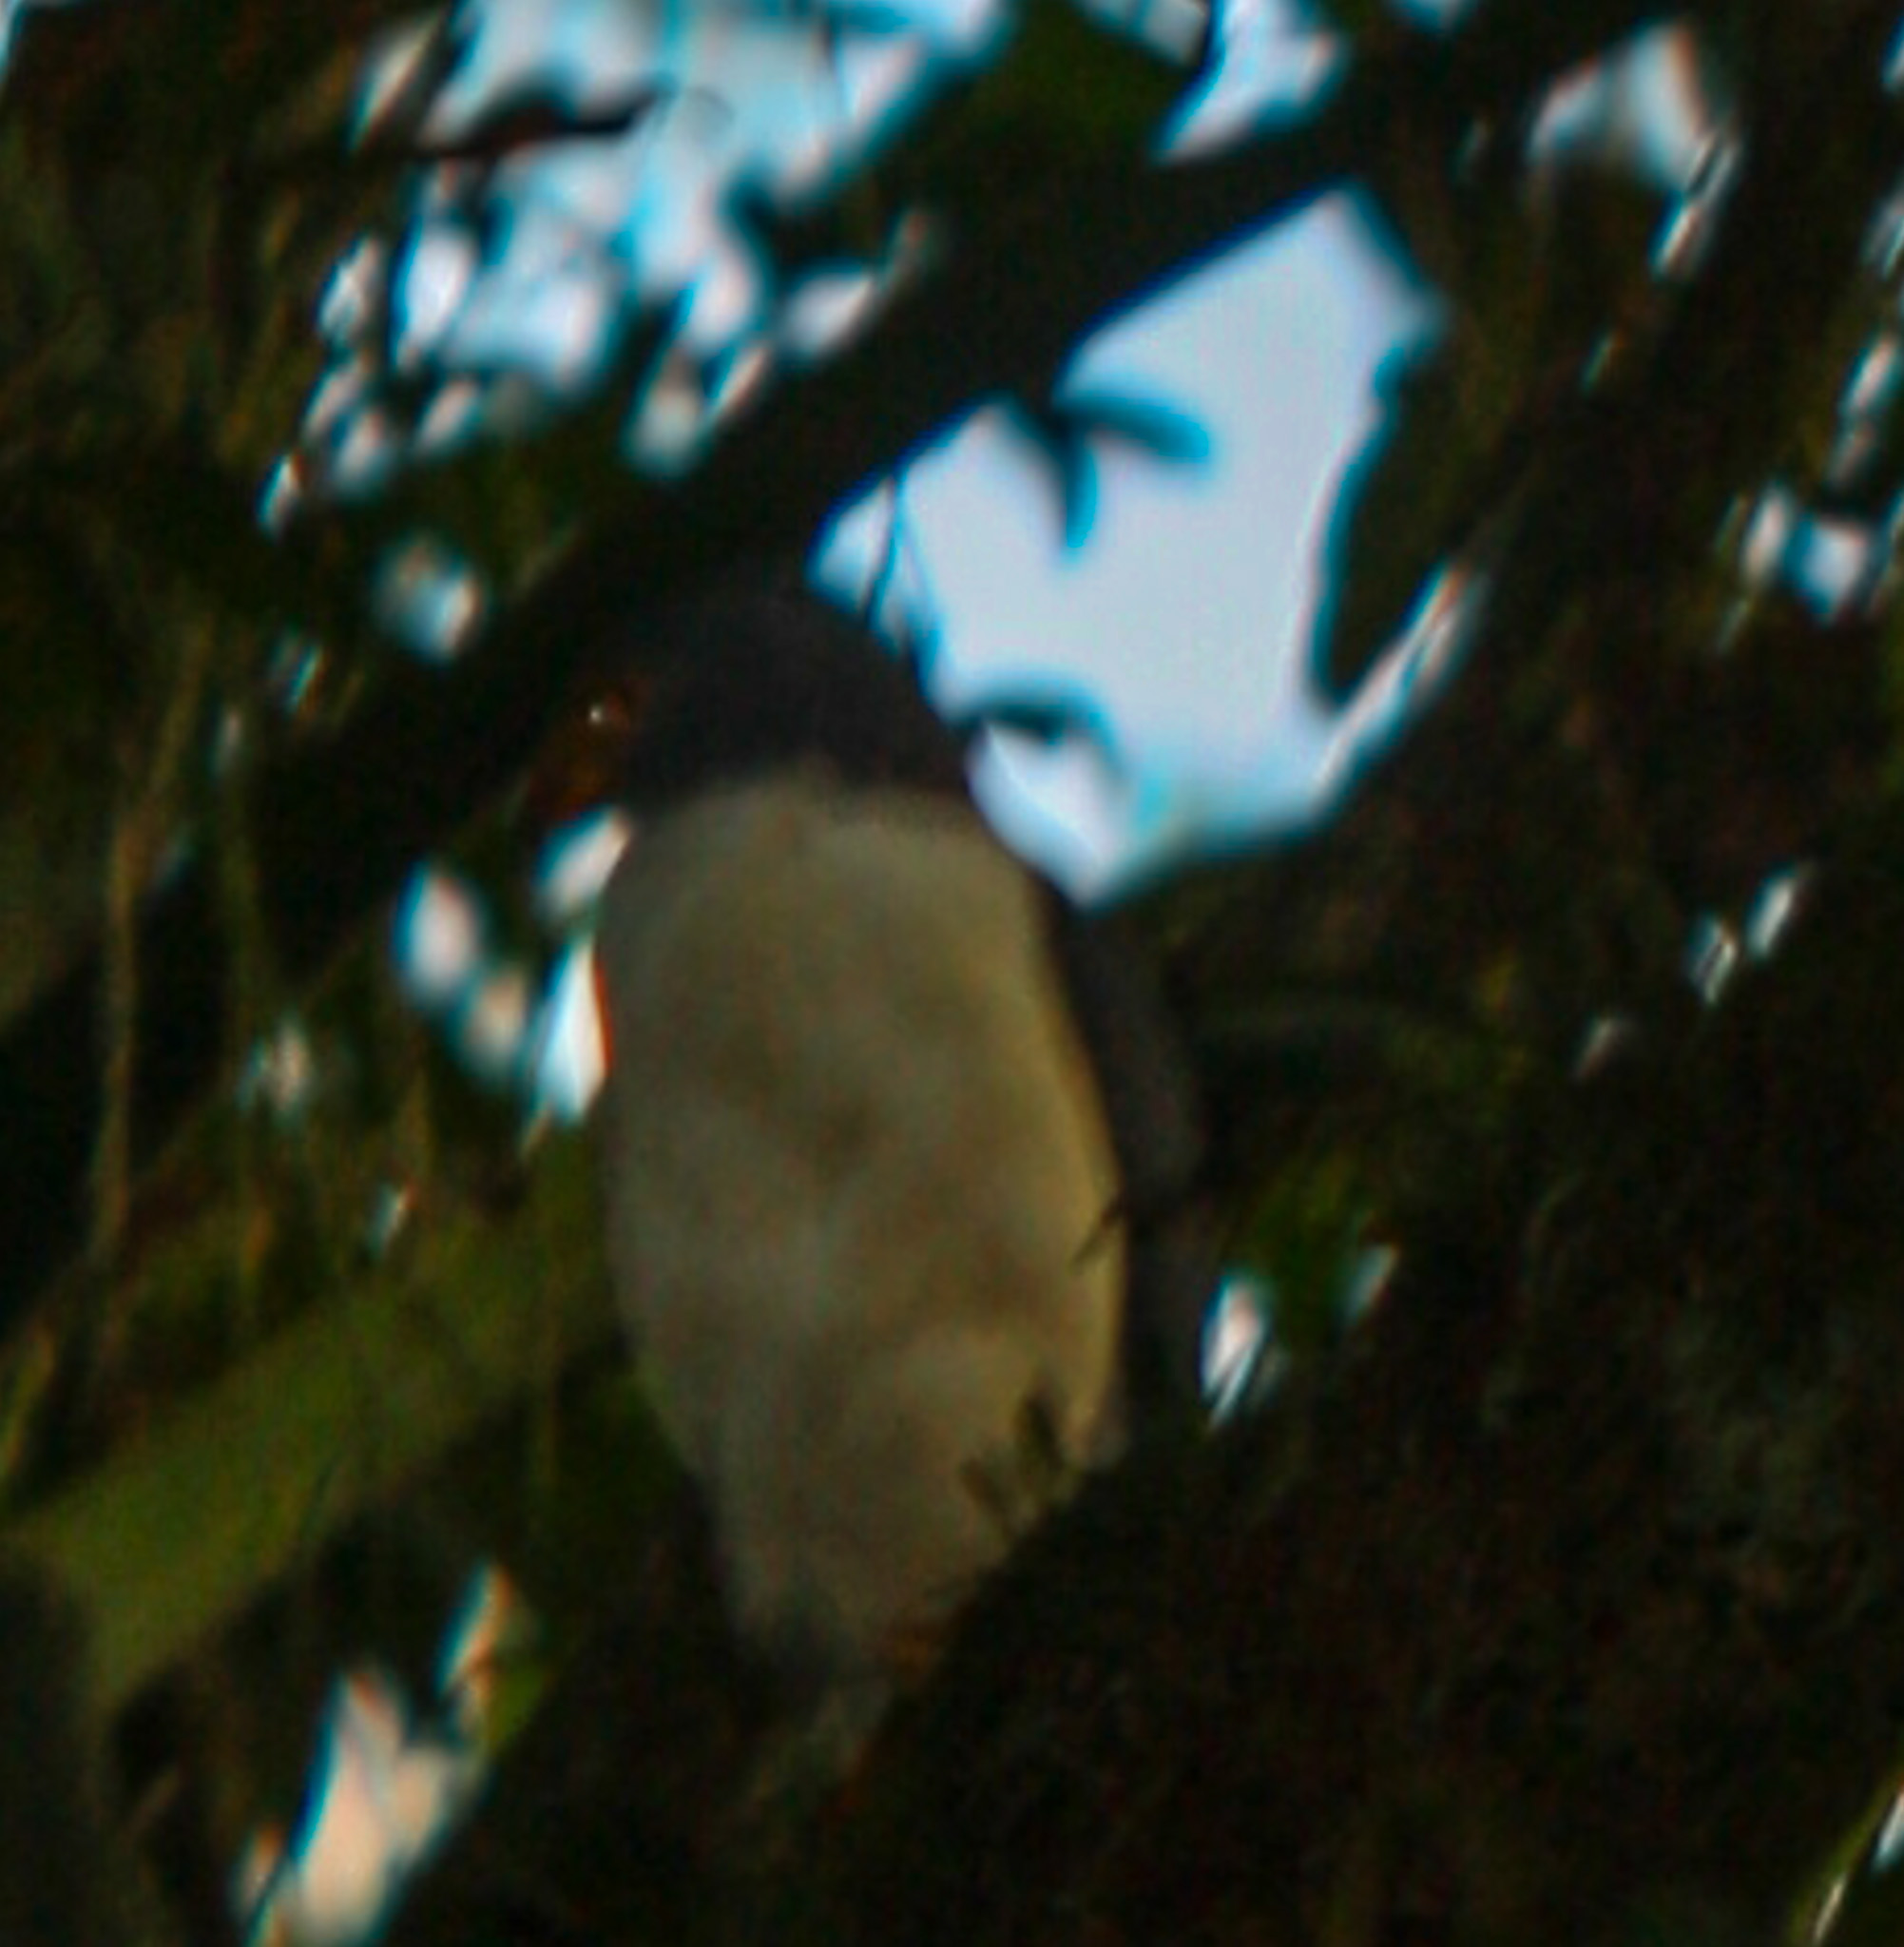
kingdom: Animalia
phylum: Chordata
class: Aves
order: Accipitriformes
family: Accipitridae
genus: Leucopternis
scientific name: Leucopternis semiplumbeus
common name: Semiplumbeous hawk
